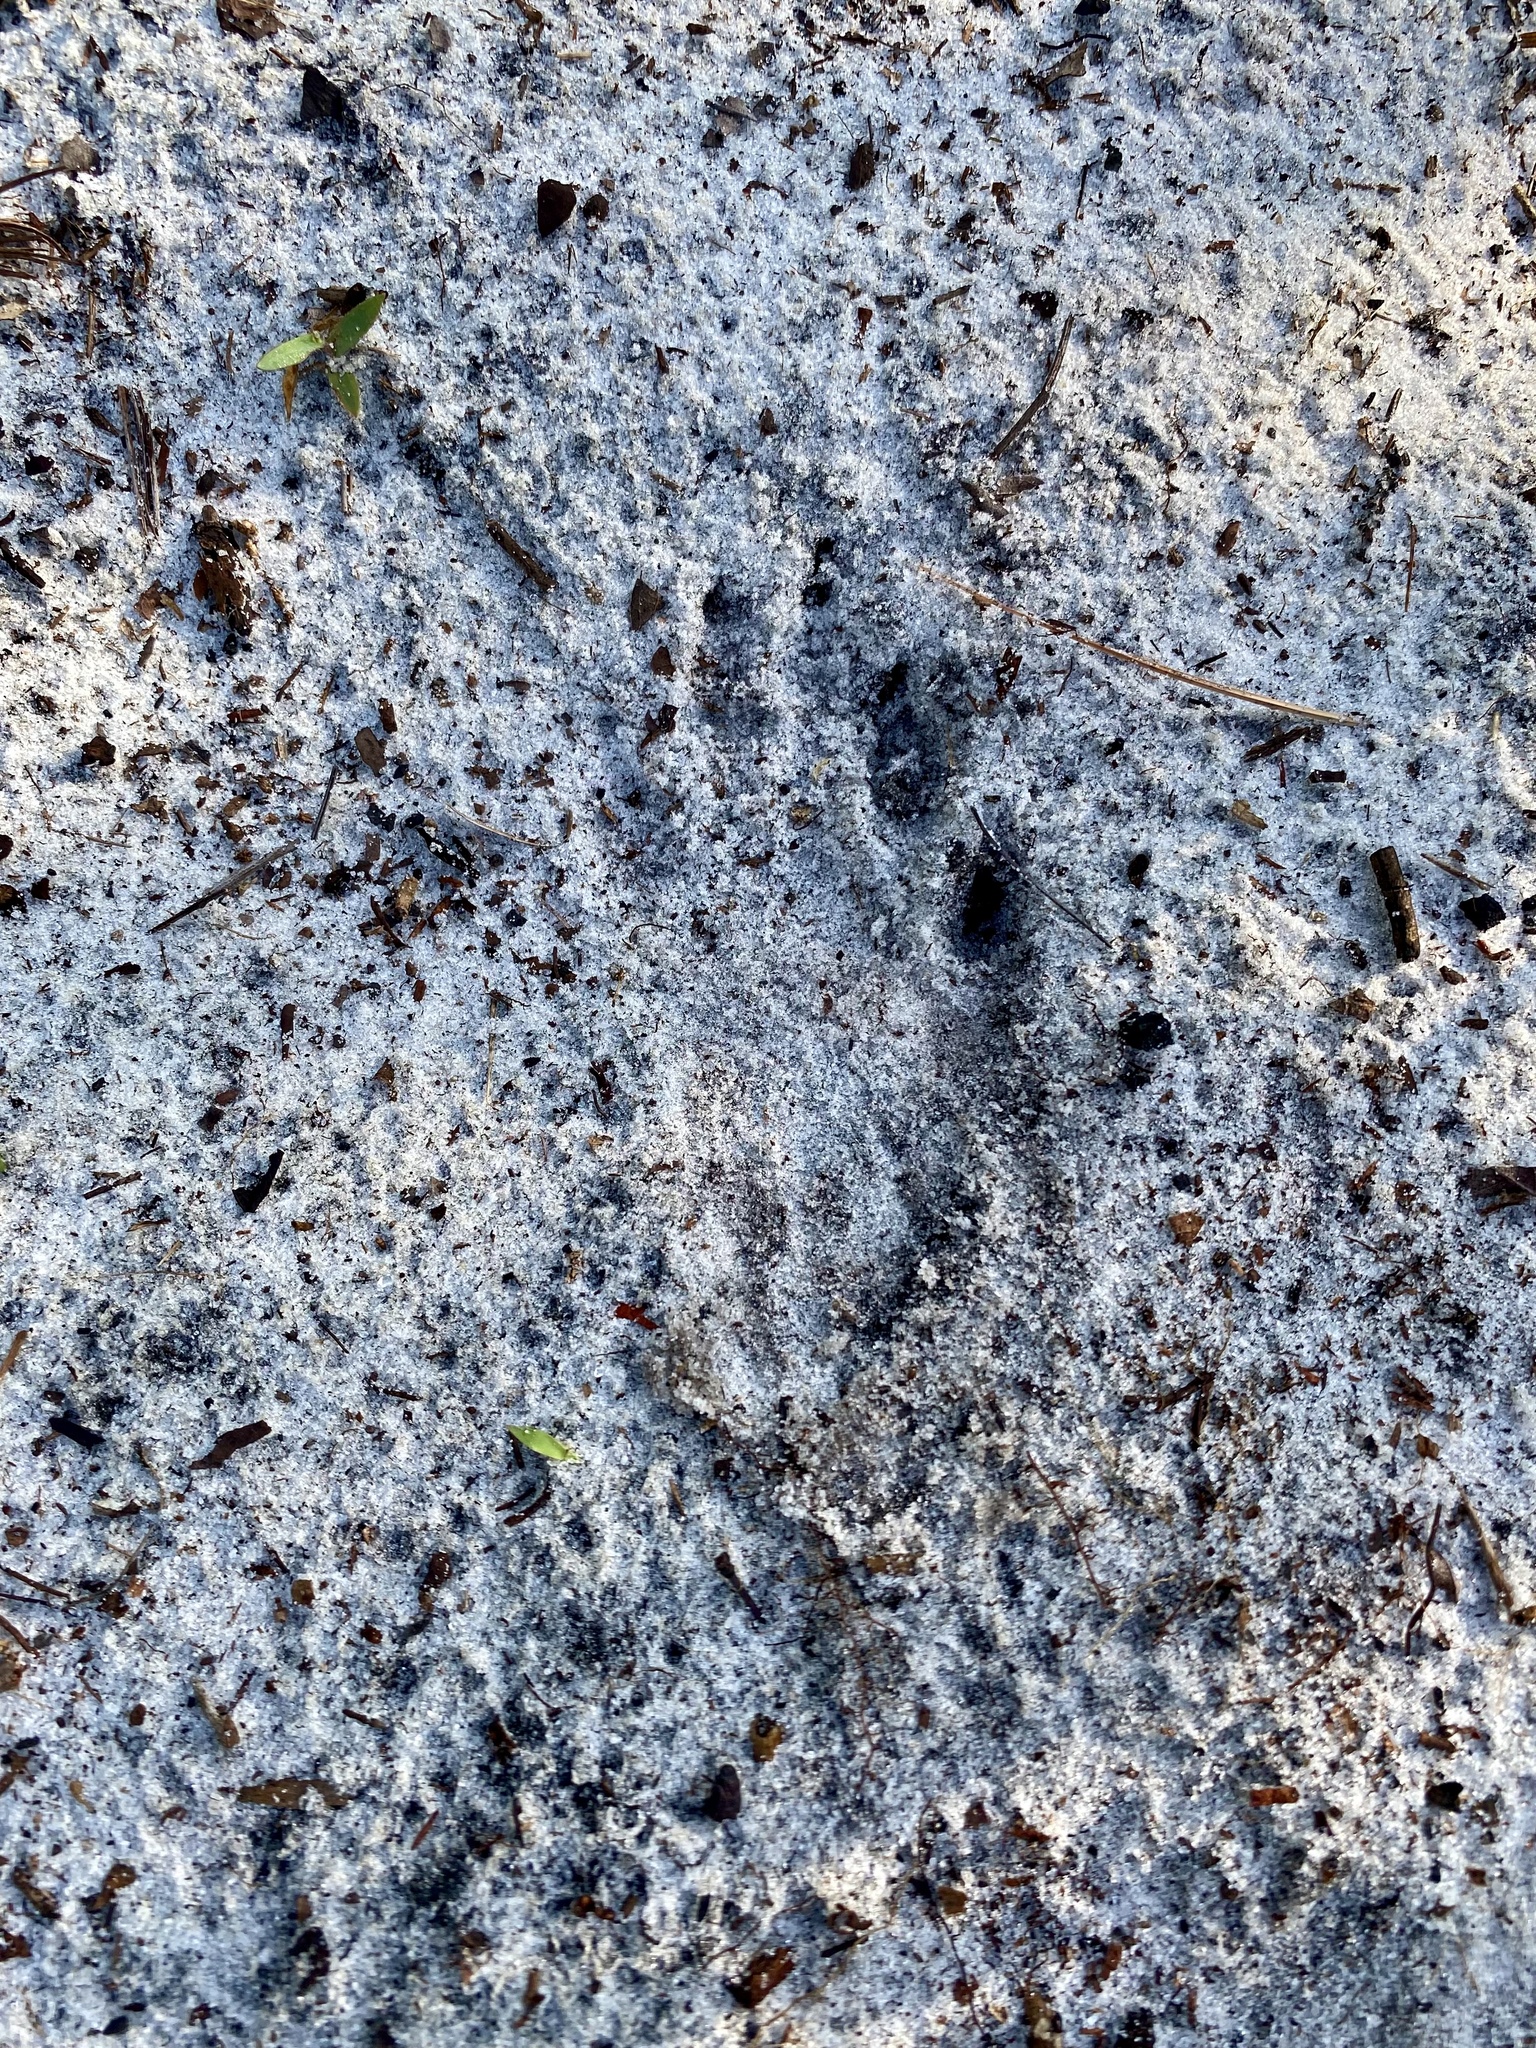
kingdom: Animalia
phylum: Chordata
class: Mammalia
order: Carnivora
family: Procyonidae
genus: Procyon
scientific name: Procyon lotor
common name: Raccoon
